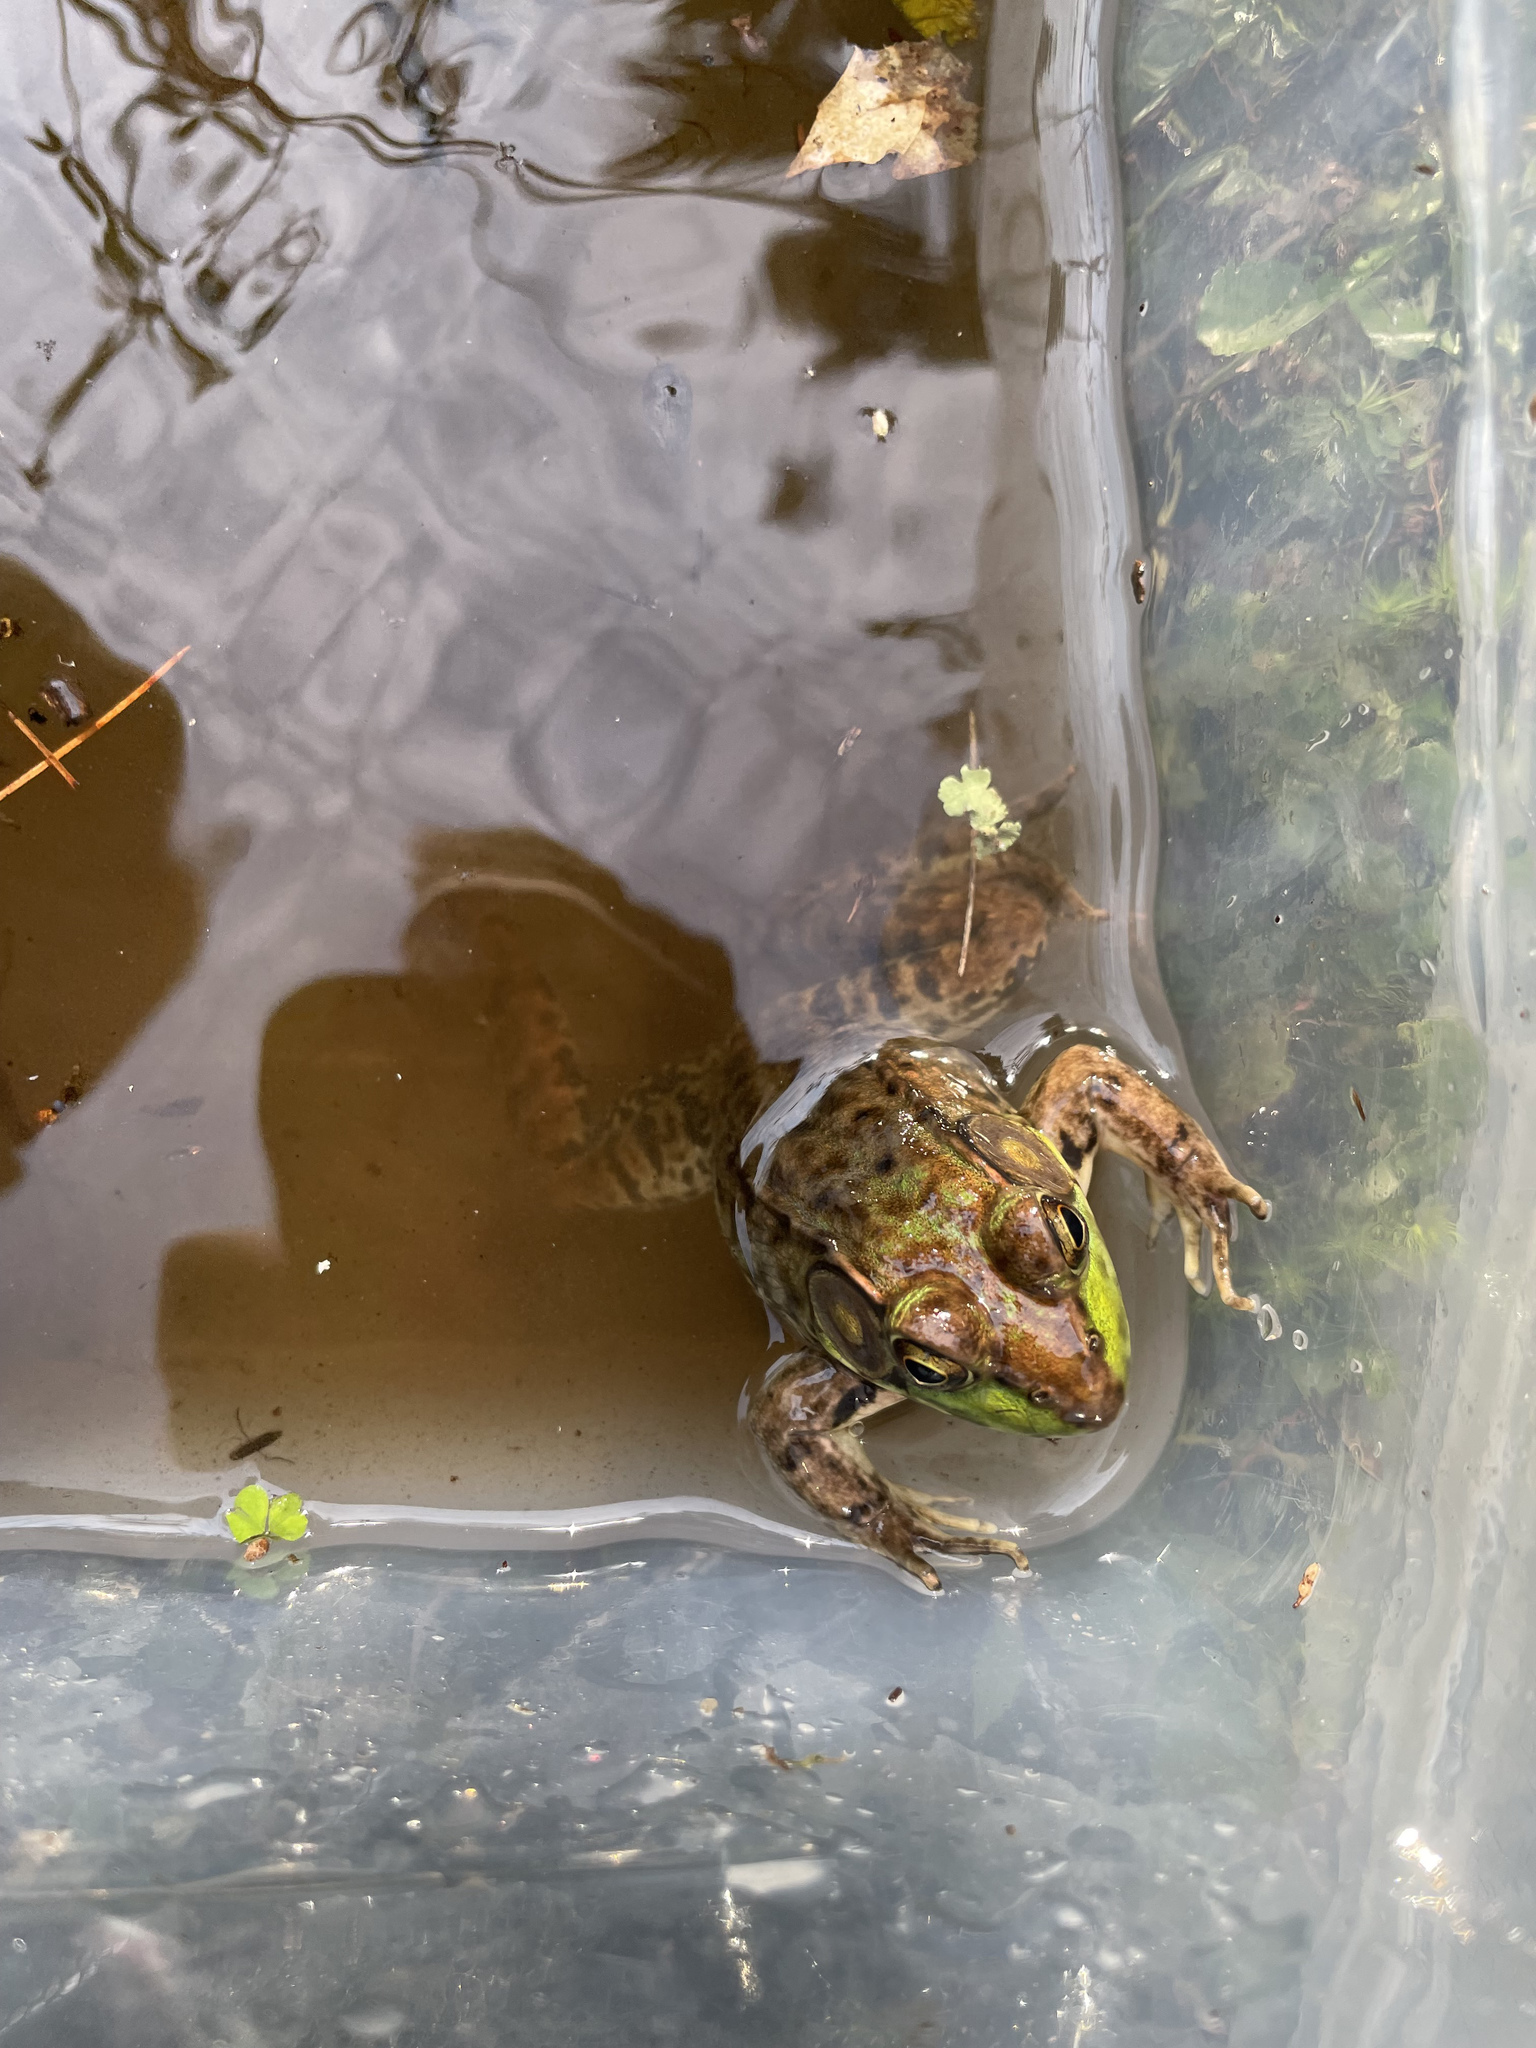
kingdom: Animalia
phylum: Chordata
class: Amphibia
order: Anura
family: Ranidae
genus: Lithobates
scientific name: Lithobates clamitans
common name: Green frog
